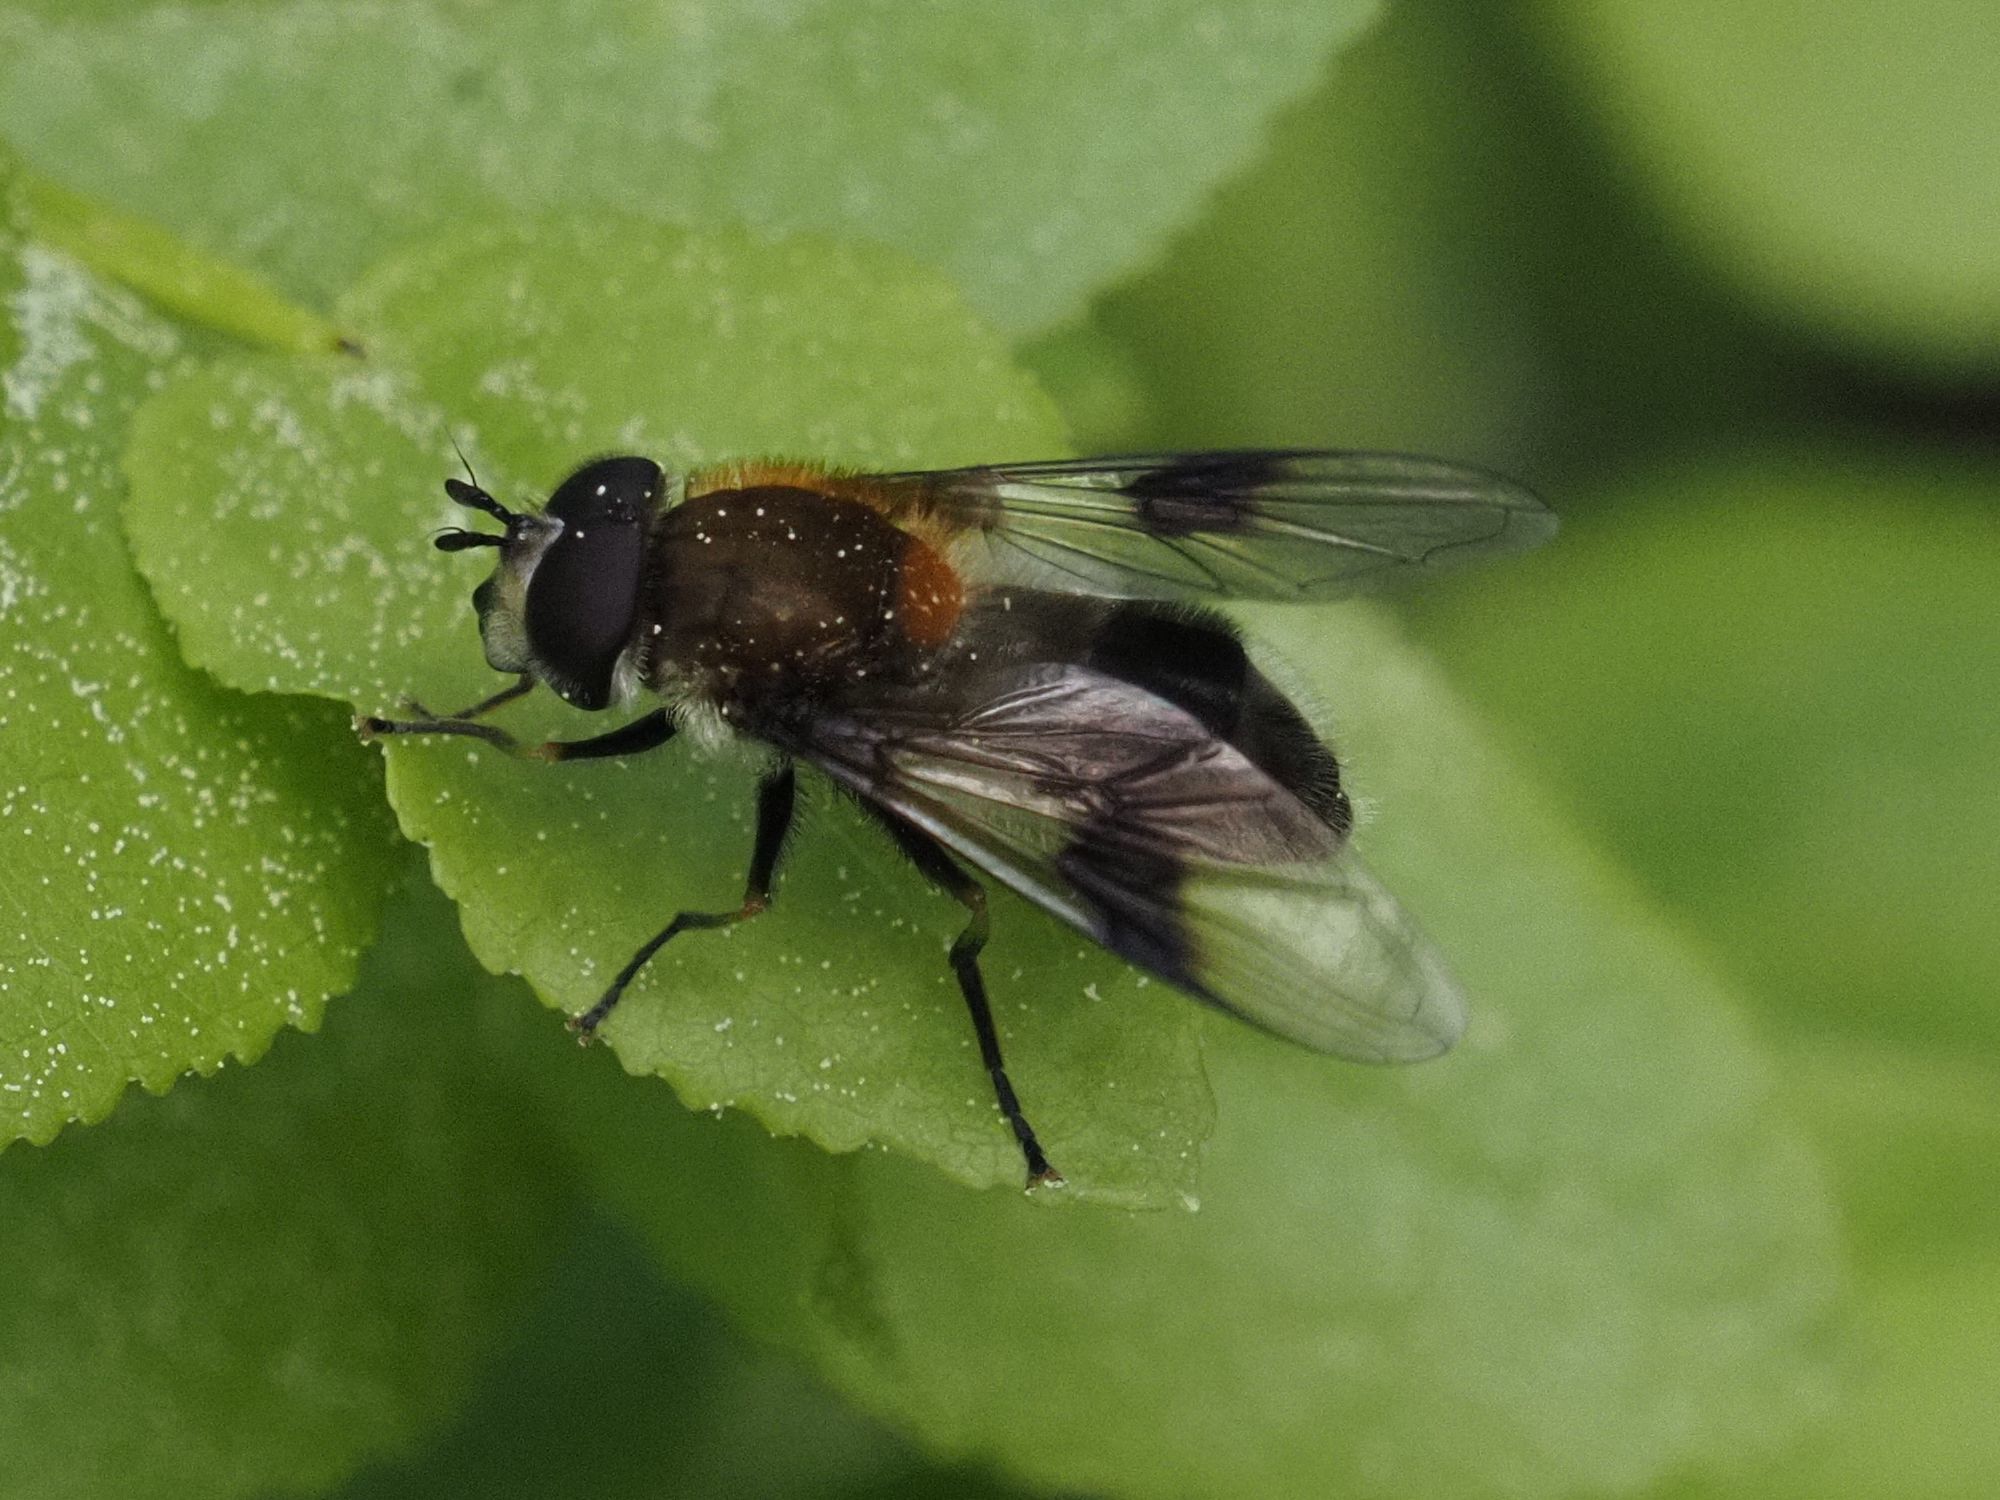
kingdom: Animalia
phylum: Arthropoda
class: Insecta
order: Diptera
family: Syrphidae
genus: Leucozona
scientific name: Leucozona lucorum
